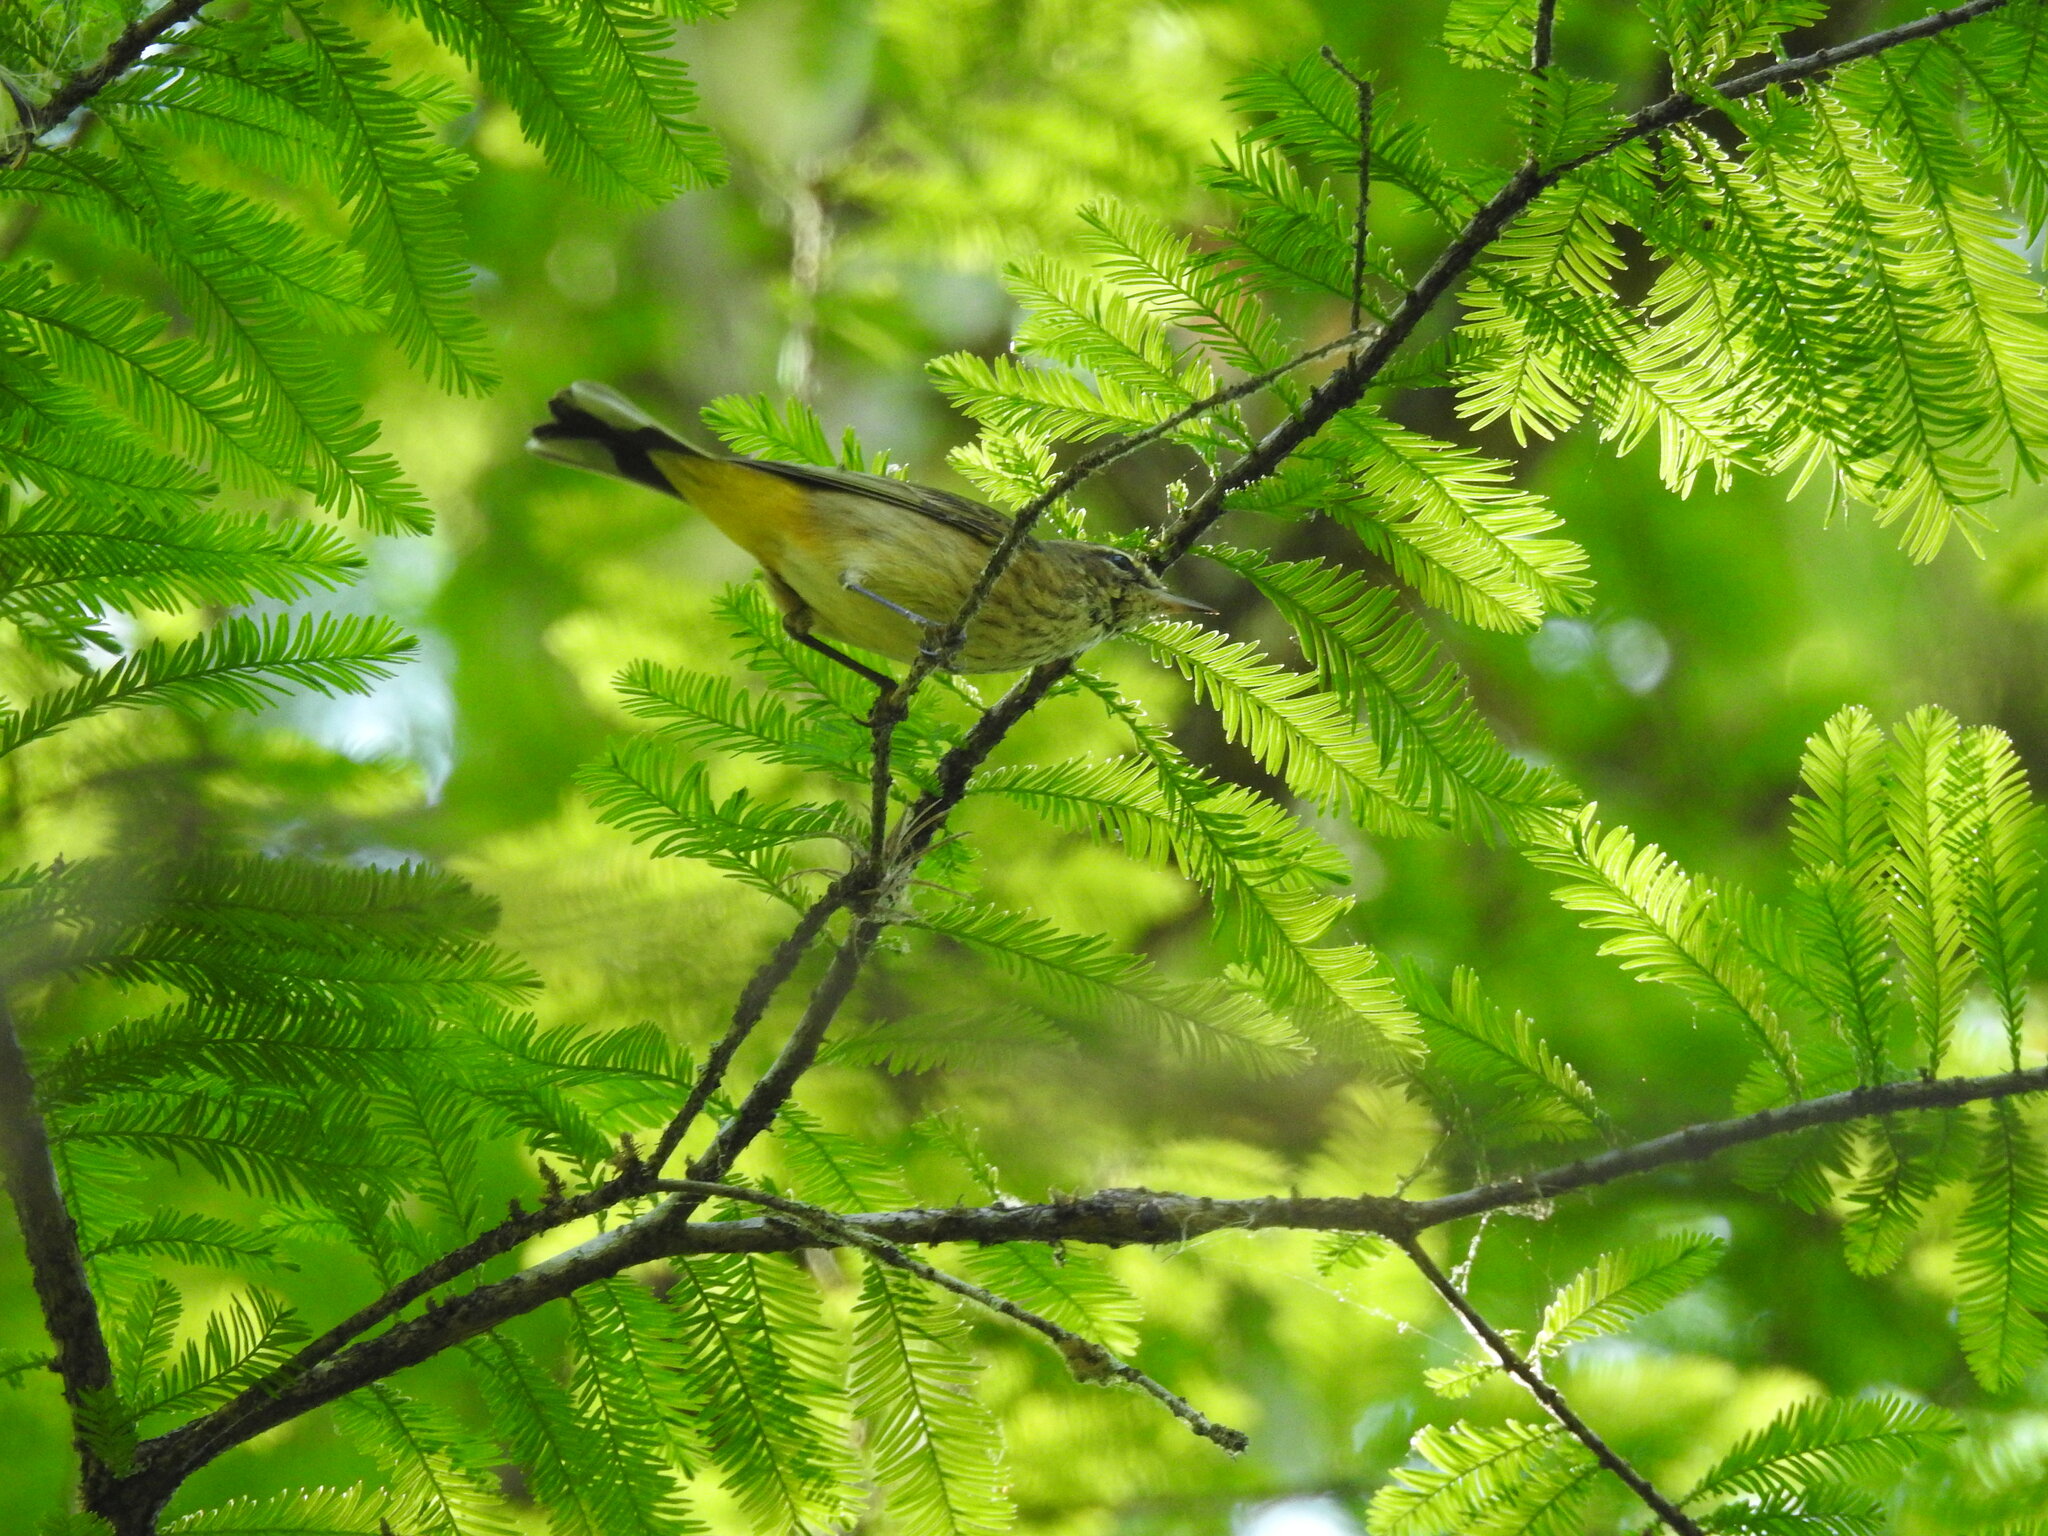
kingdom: Animalia
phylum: Chordata
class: Aves
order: Passeriformes
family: Parulidae
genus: Setophaga
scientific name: Setophaga palmarum
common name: Palm warbler
